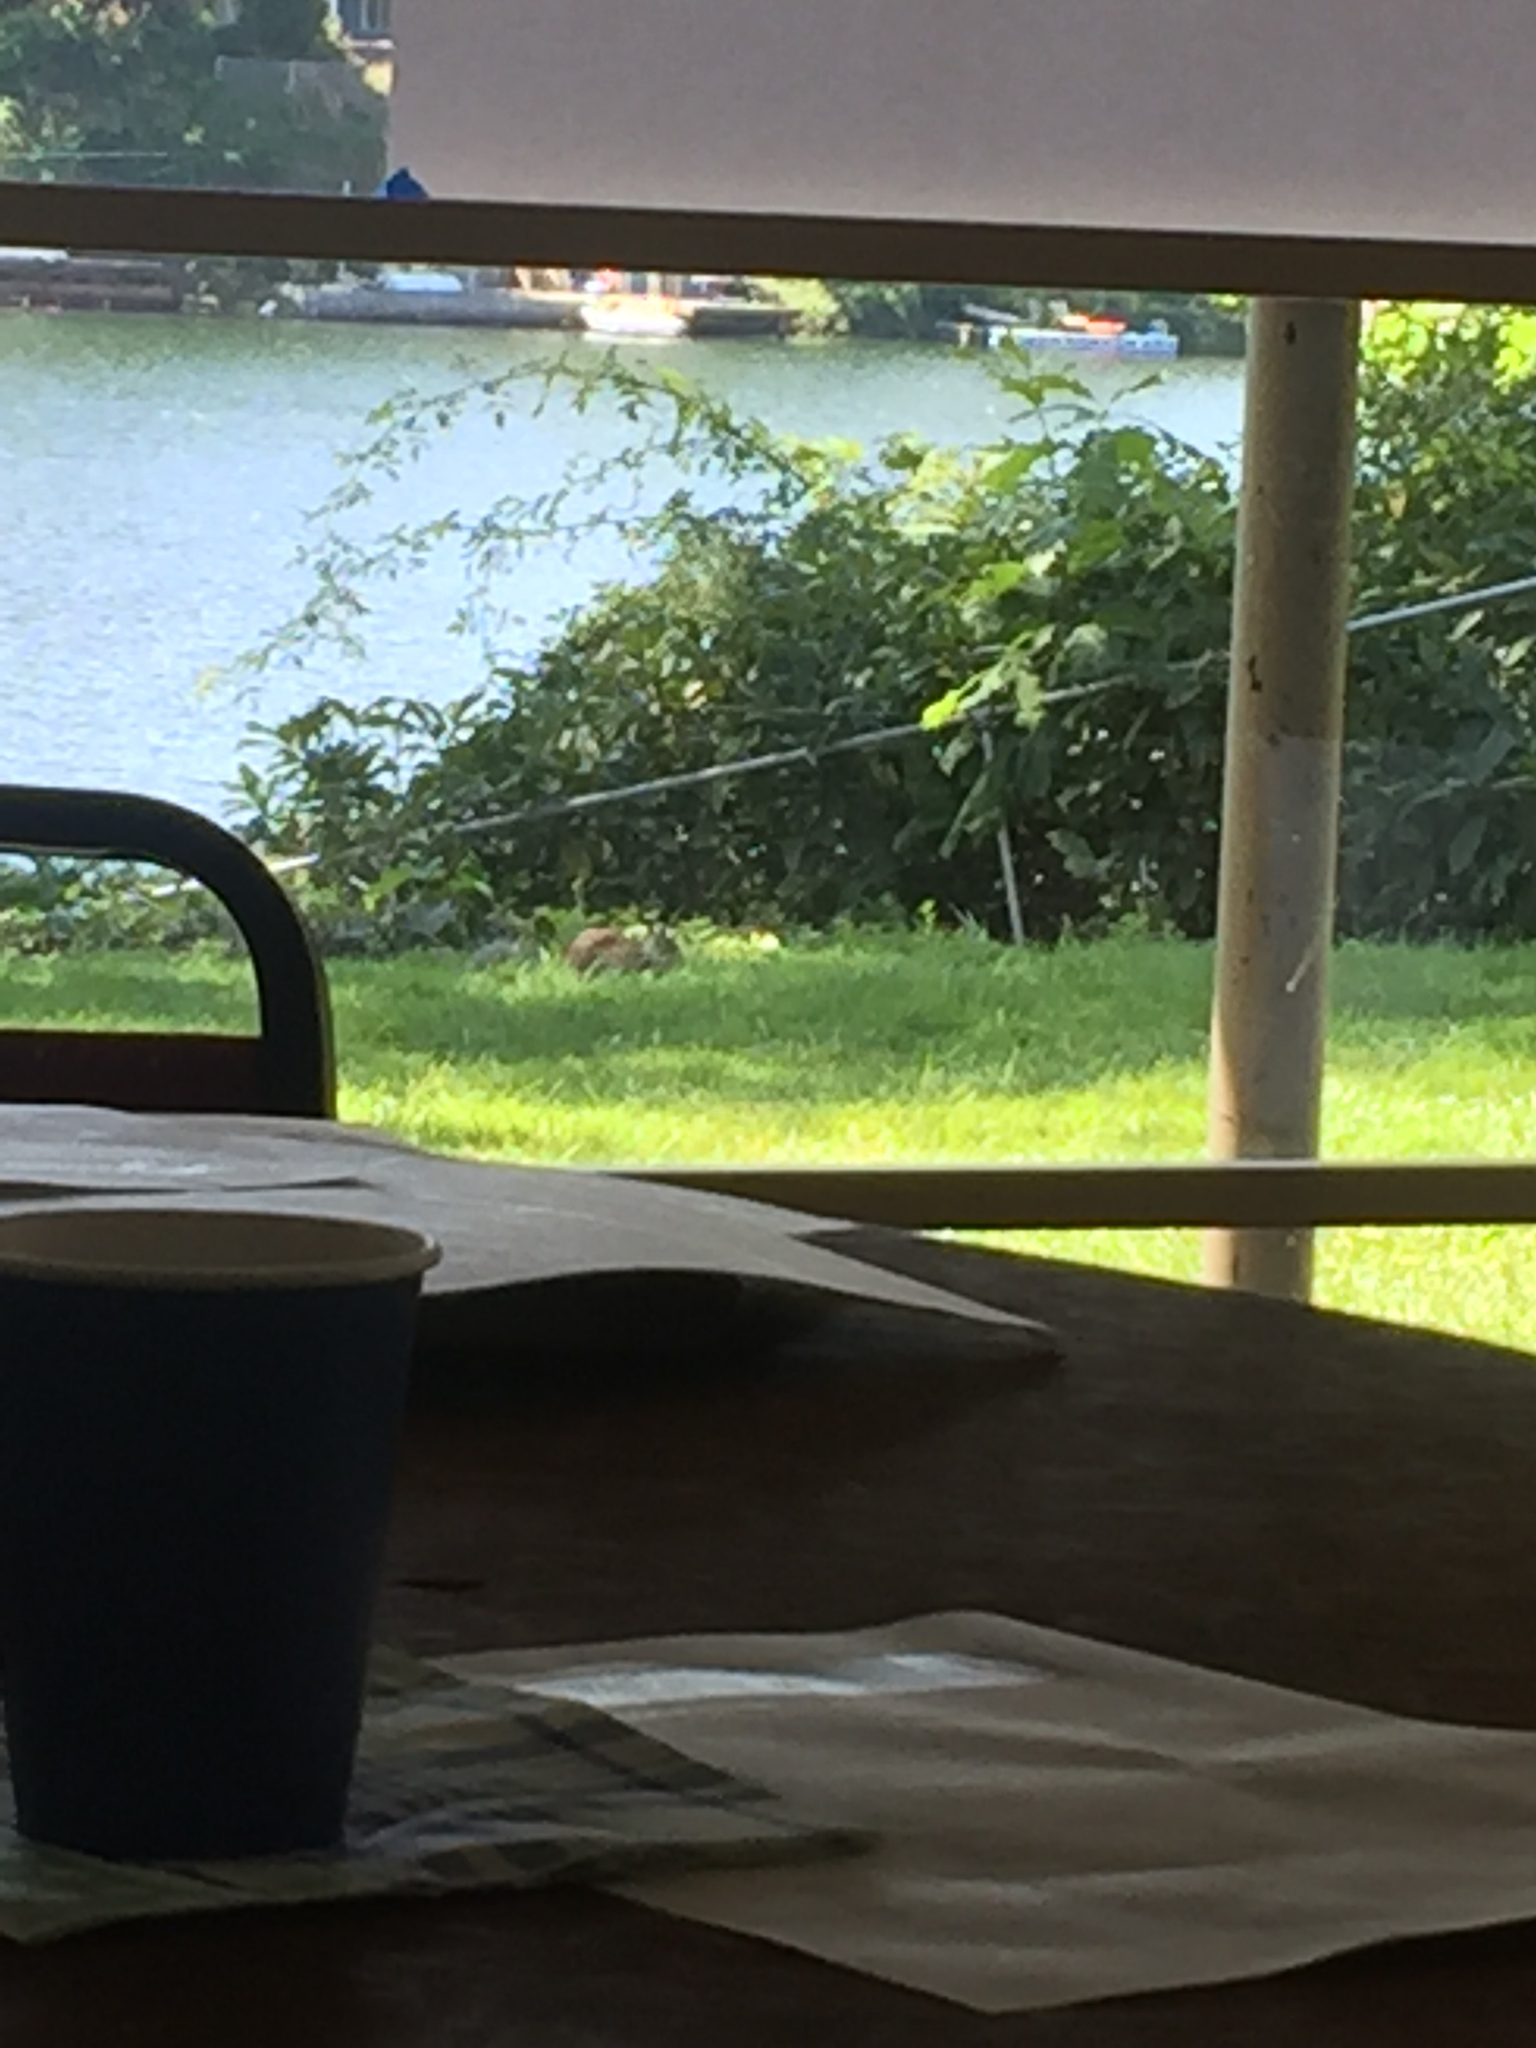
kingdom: Animalia
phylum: Chordata
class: Mammalia
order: Rodentia
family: Sciuridae
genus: Otospermophilus
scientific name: Otospermophilus beecheyi
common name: California ground squirrel
